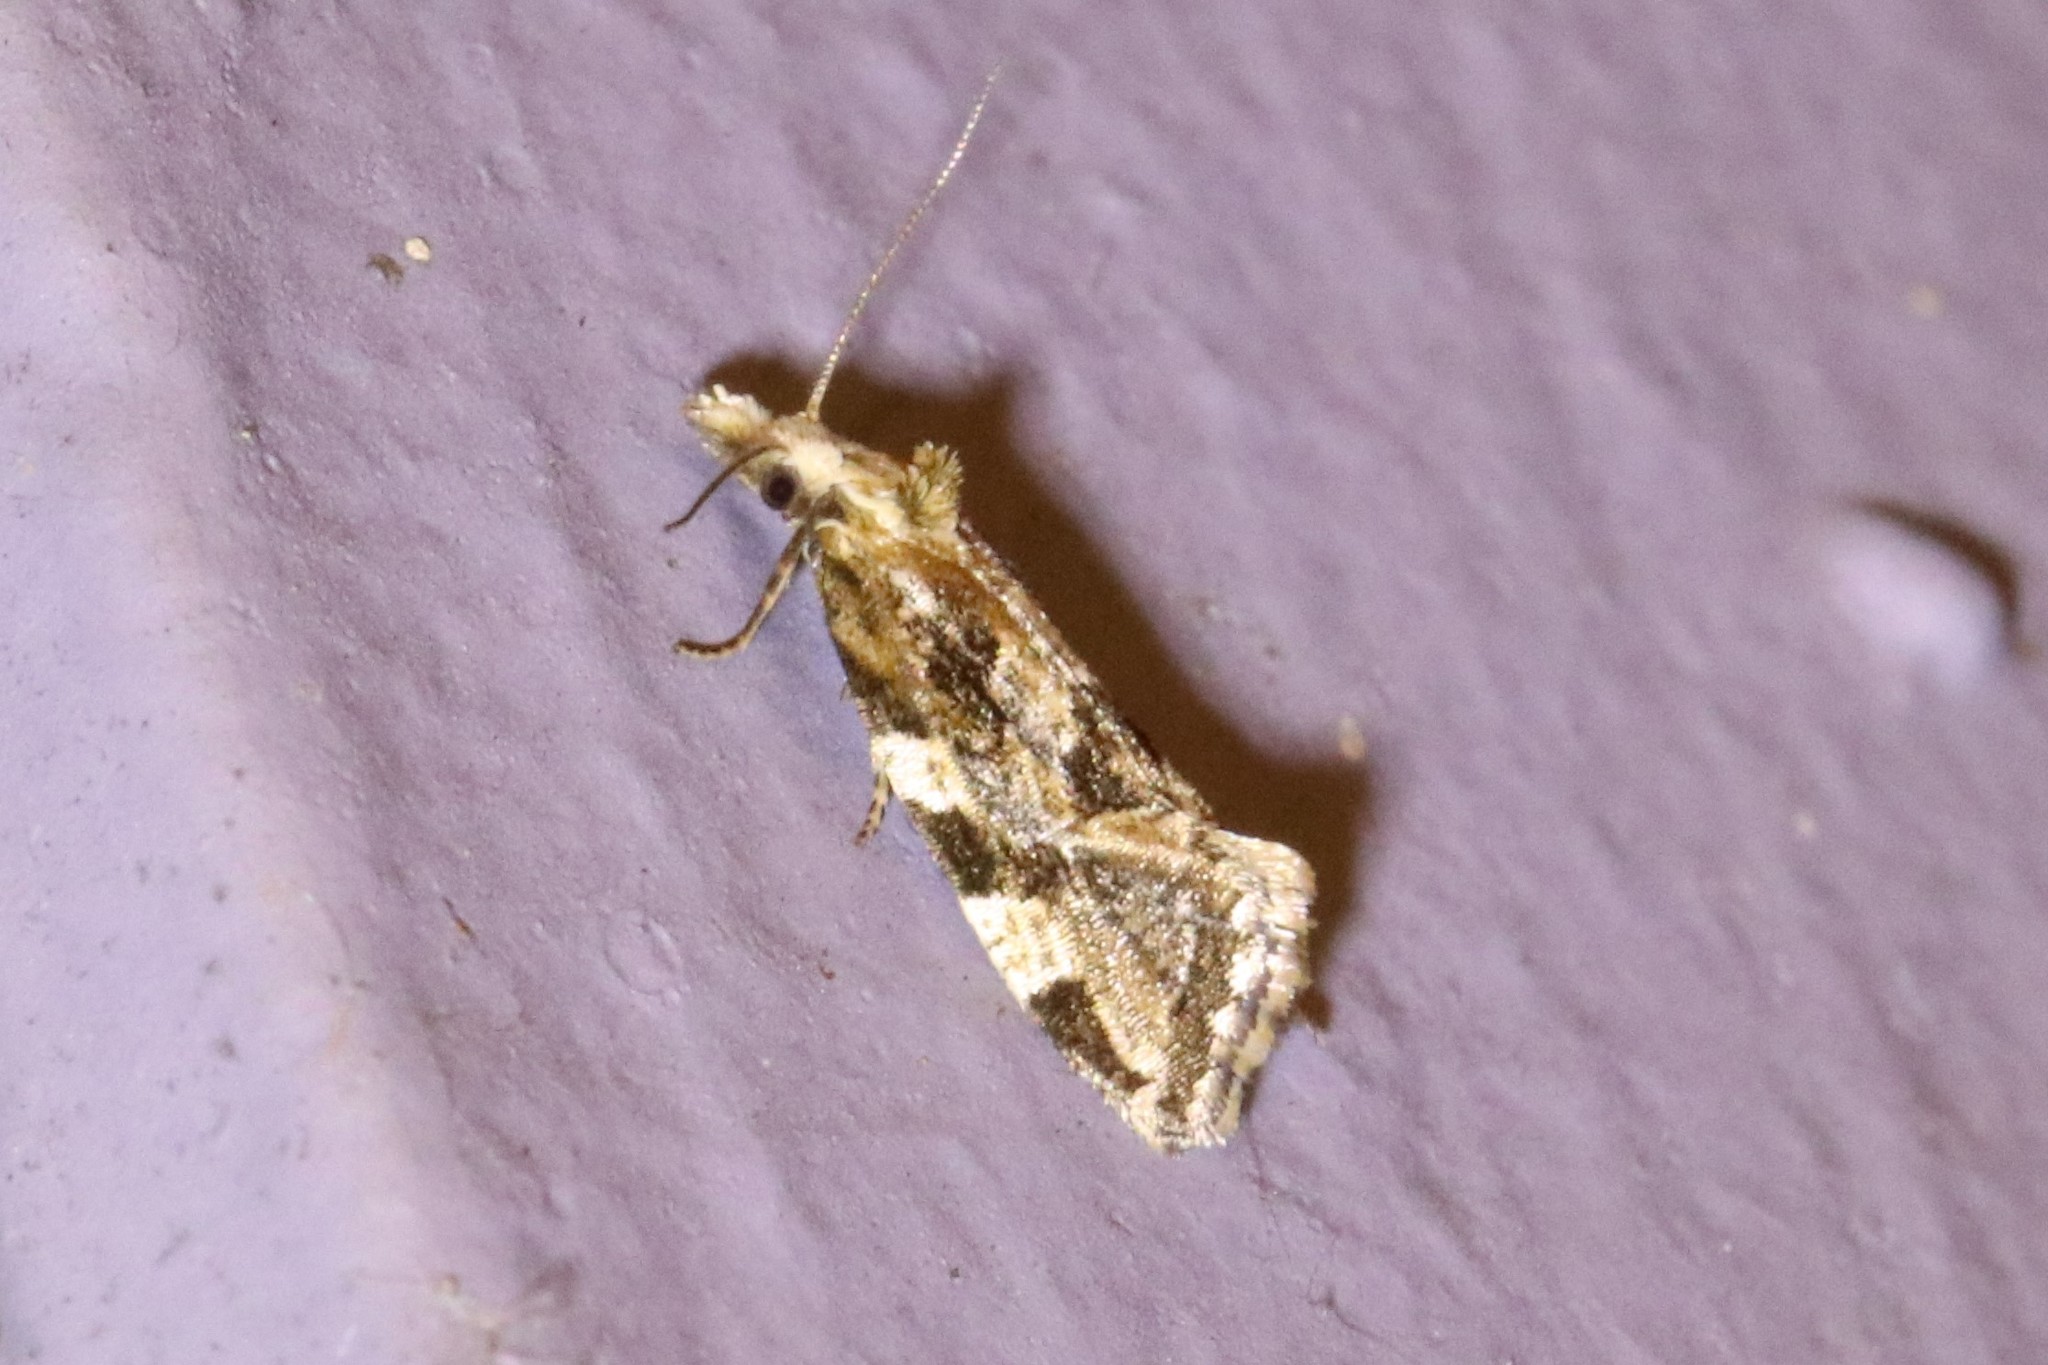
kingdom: Animalia
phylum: Arthropoda
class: Insecta
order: Lepidoptera
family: Tortricidae
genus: Aethes
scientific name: Aethes sexdentata
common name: Six-toothed aethes
